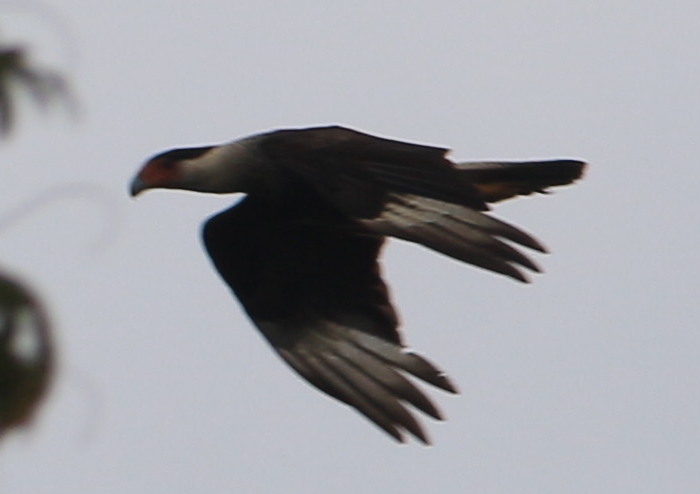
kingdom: Animalia
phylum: Chordata
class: Aves
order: Falconiformes
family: Falconidae
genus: Caracara
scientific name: Caracara plancus
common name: Southern caracara
